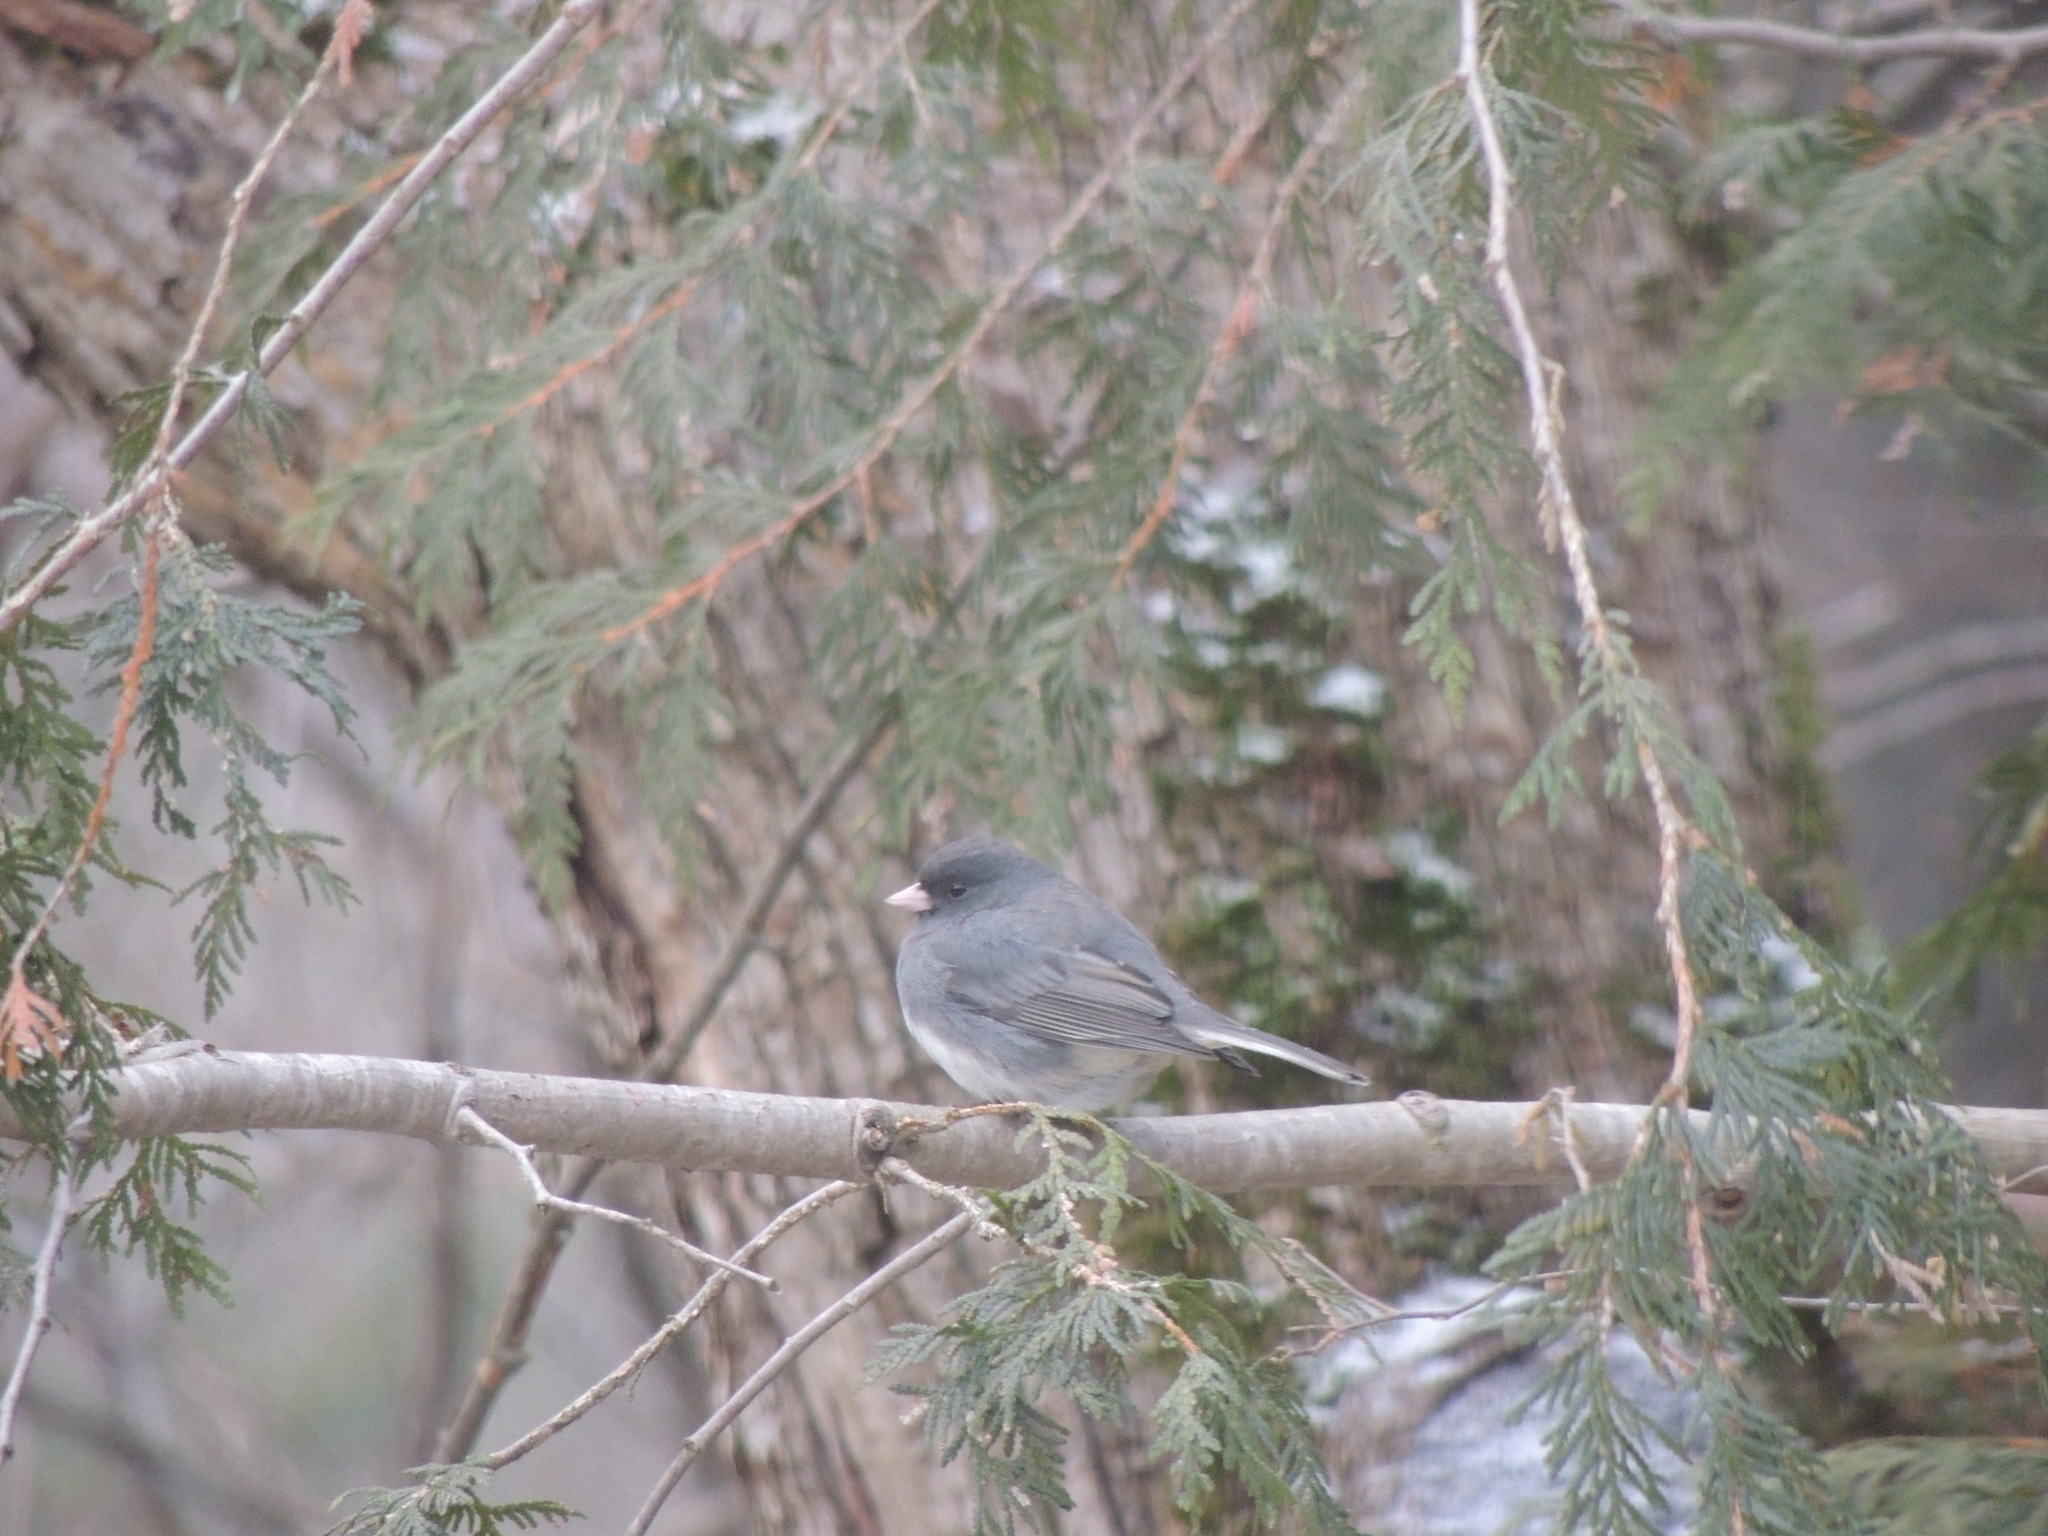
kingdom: Animalia
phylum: Chordata
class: Aves
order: Passeriformes
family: Passerellidae
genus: Junco
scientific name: Junco hyemalis
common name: Dark-eyed junco
